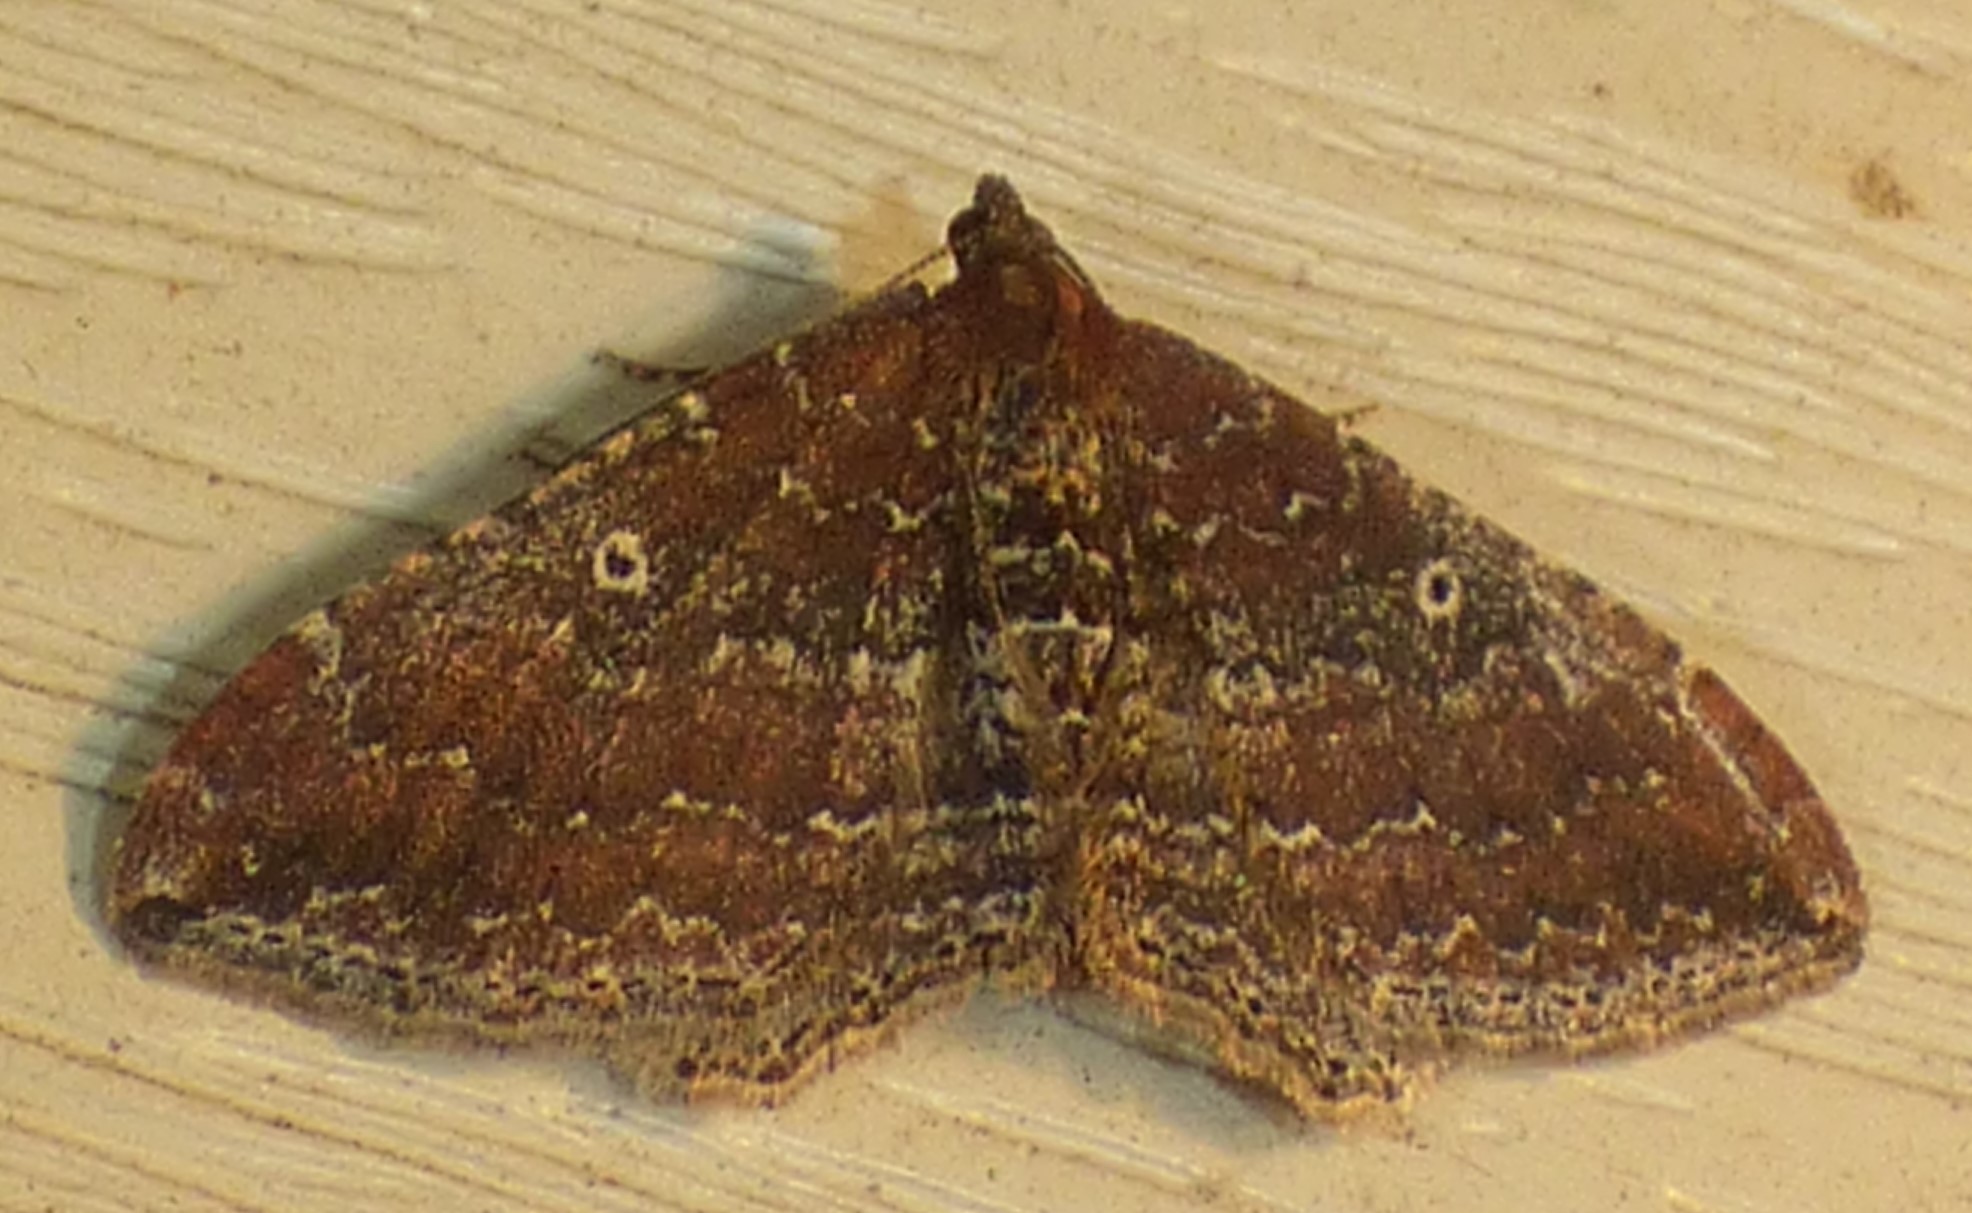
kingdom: Animalia
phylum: Arthropoda
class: Insecta
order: Lepidoptera
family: Geometridae
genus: Orthonama
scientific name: Orthonama obstipata
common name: The gem
